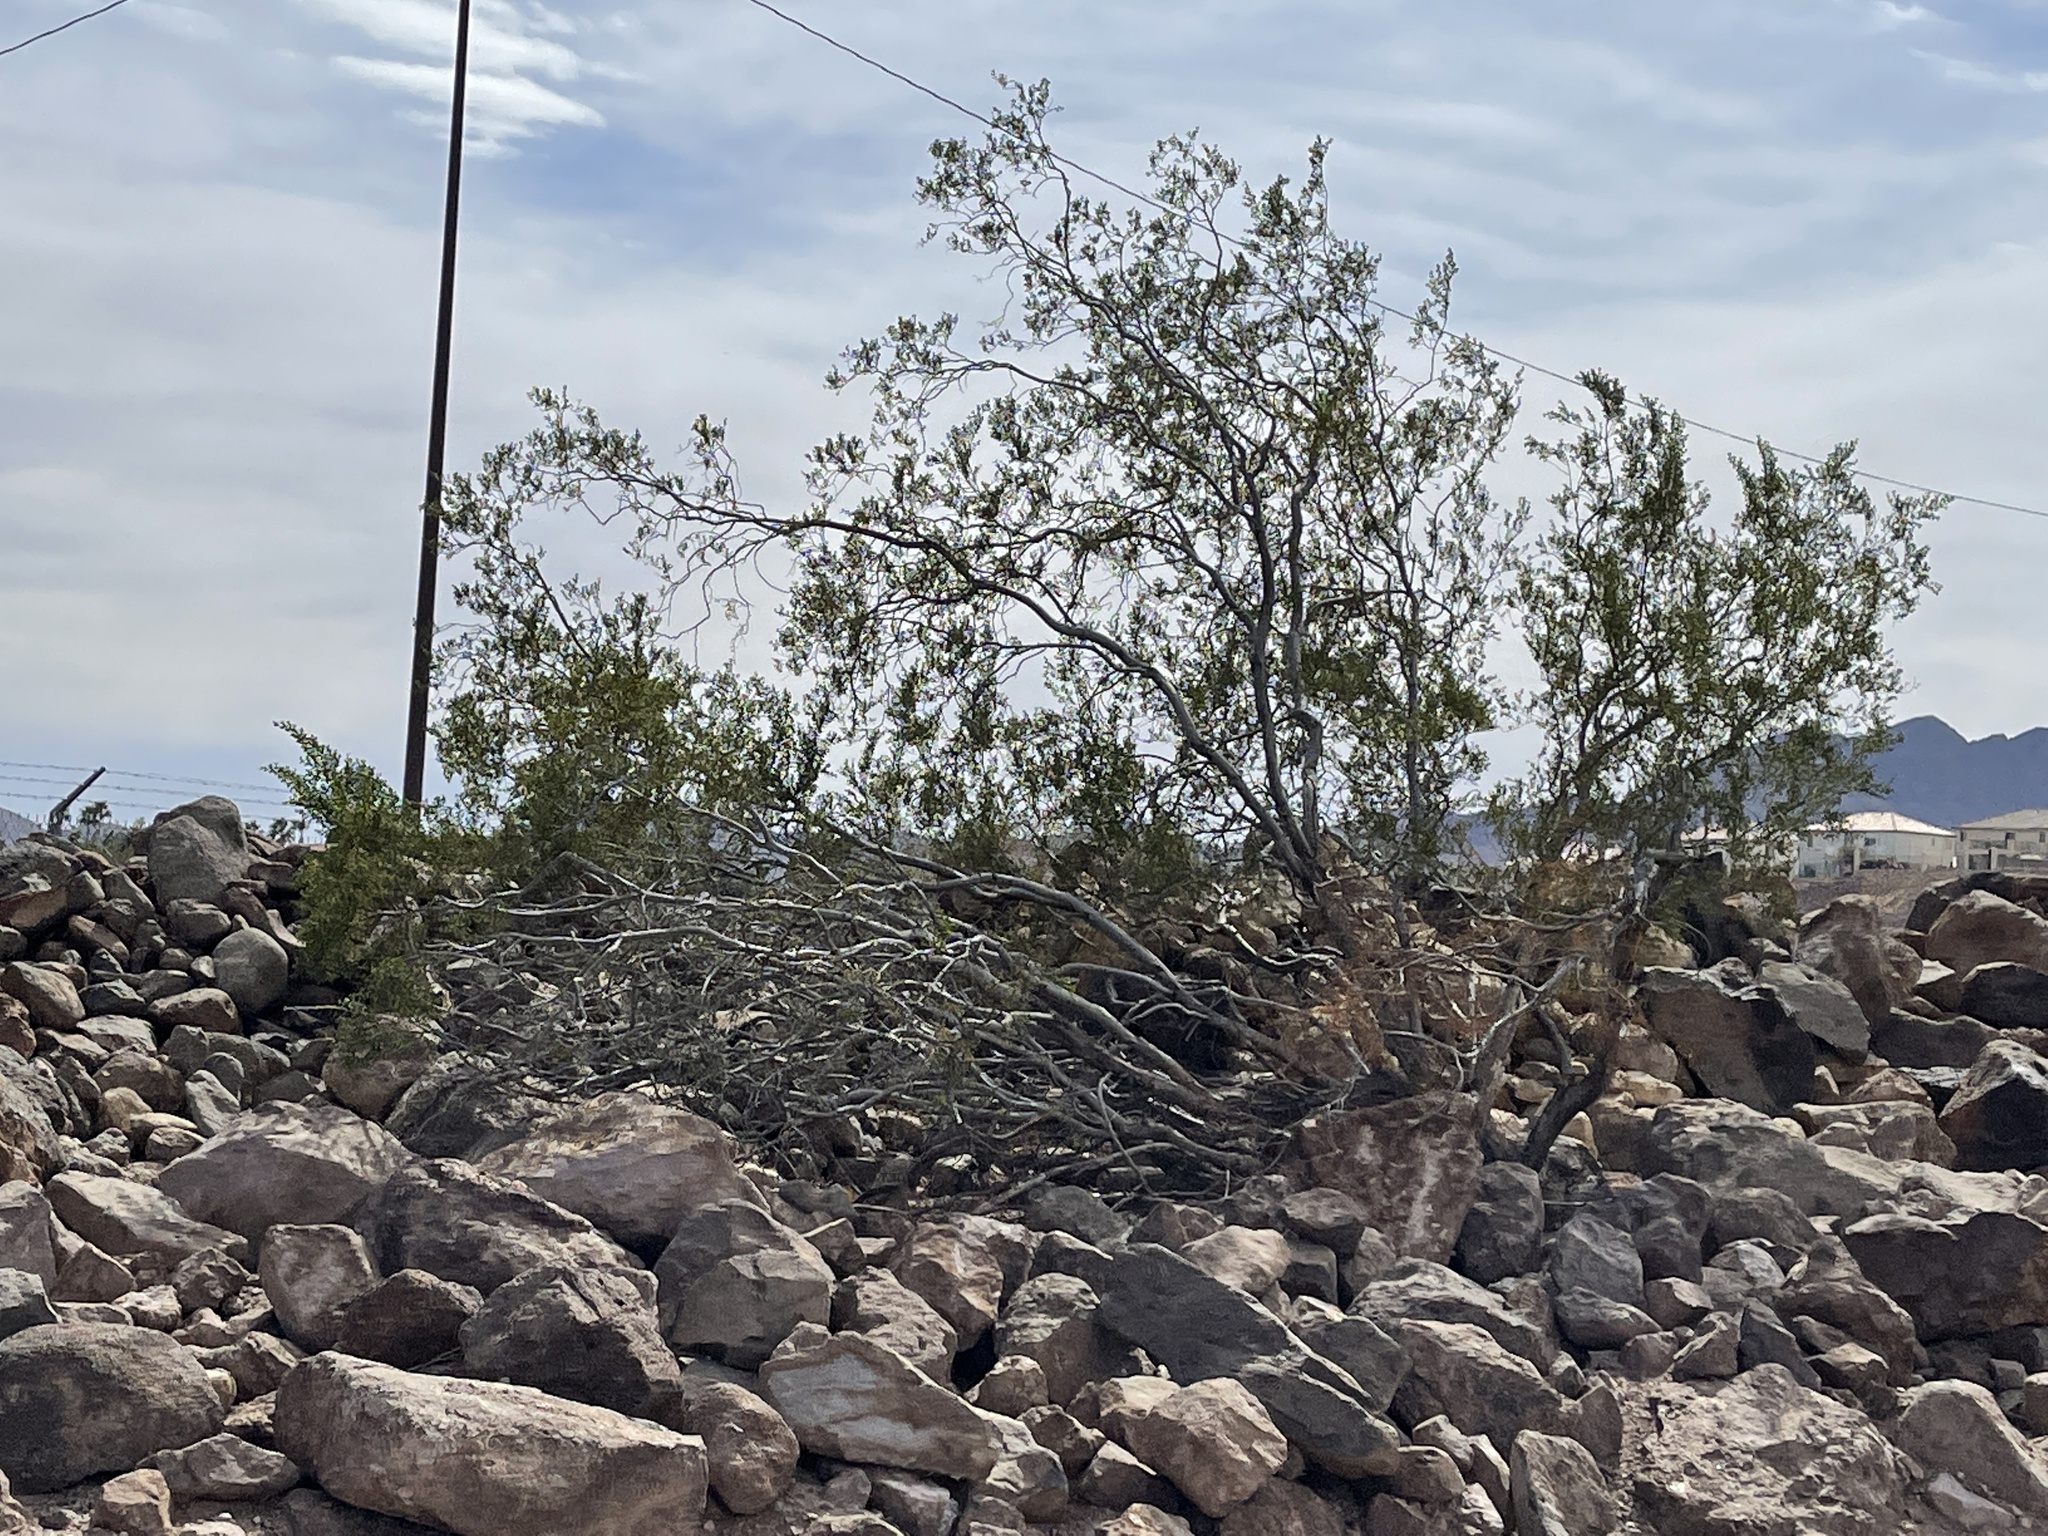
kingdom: Plantae
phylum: Tracheophyta
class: Magnoliopsida
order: Zygophyllales
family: Zygophyllaceae
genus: Larrea
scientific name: Larrea tridentata
